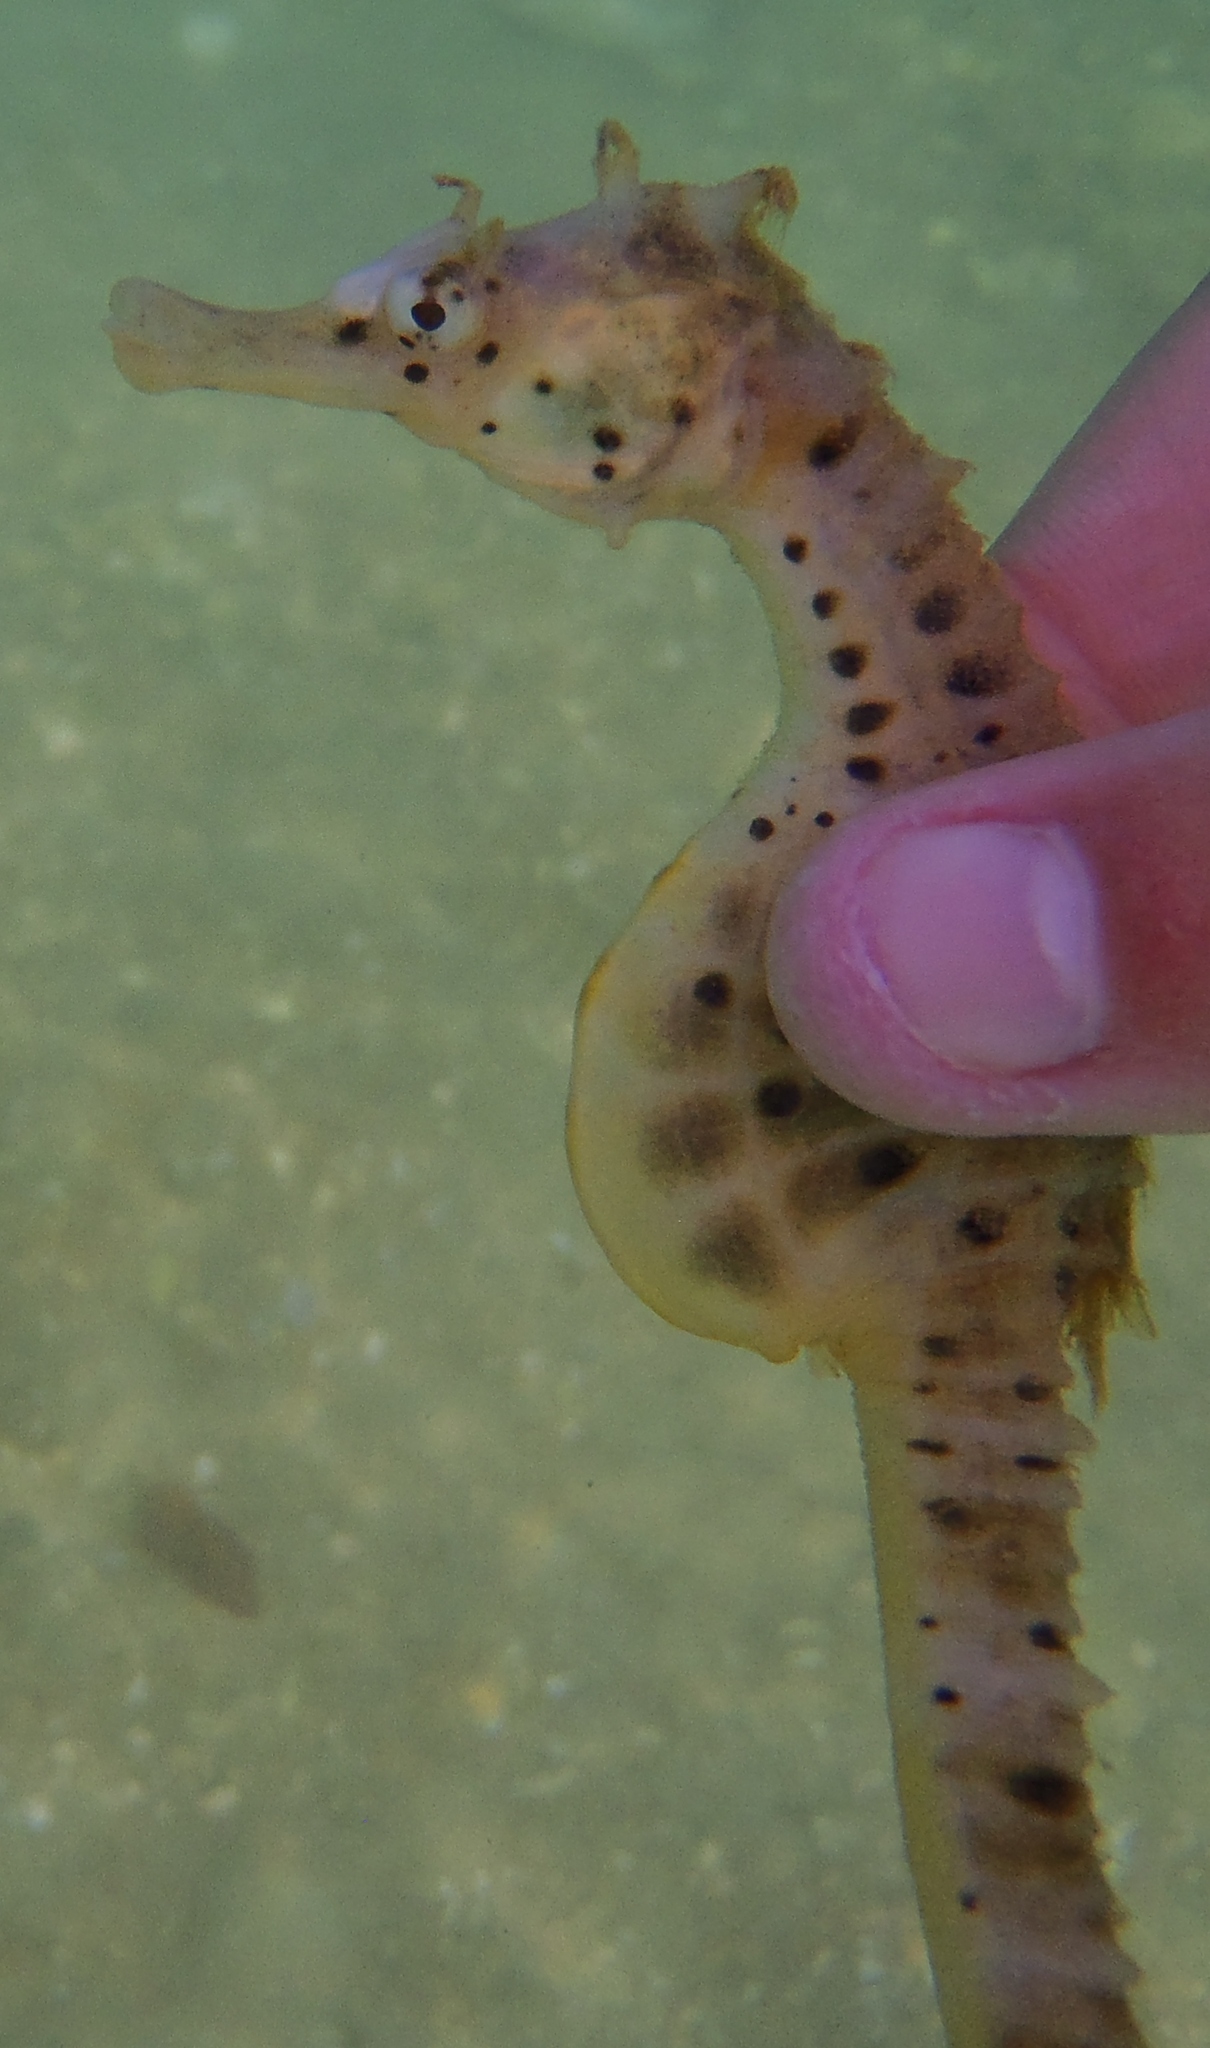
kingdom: Animalia
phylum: Chordata
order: Syngnathiformes
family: Syngnathidae
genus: Hippocampus
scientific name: Hippocampus abdominalis
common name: Big-belly seahorse
